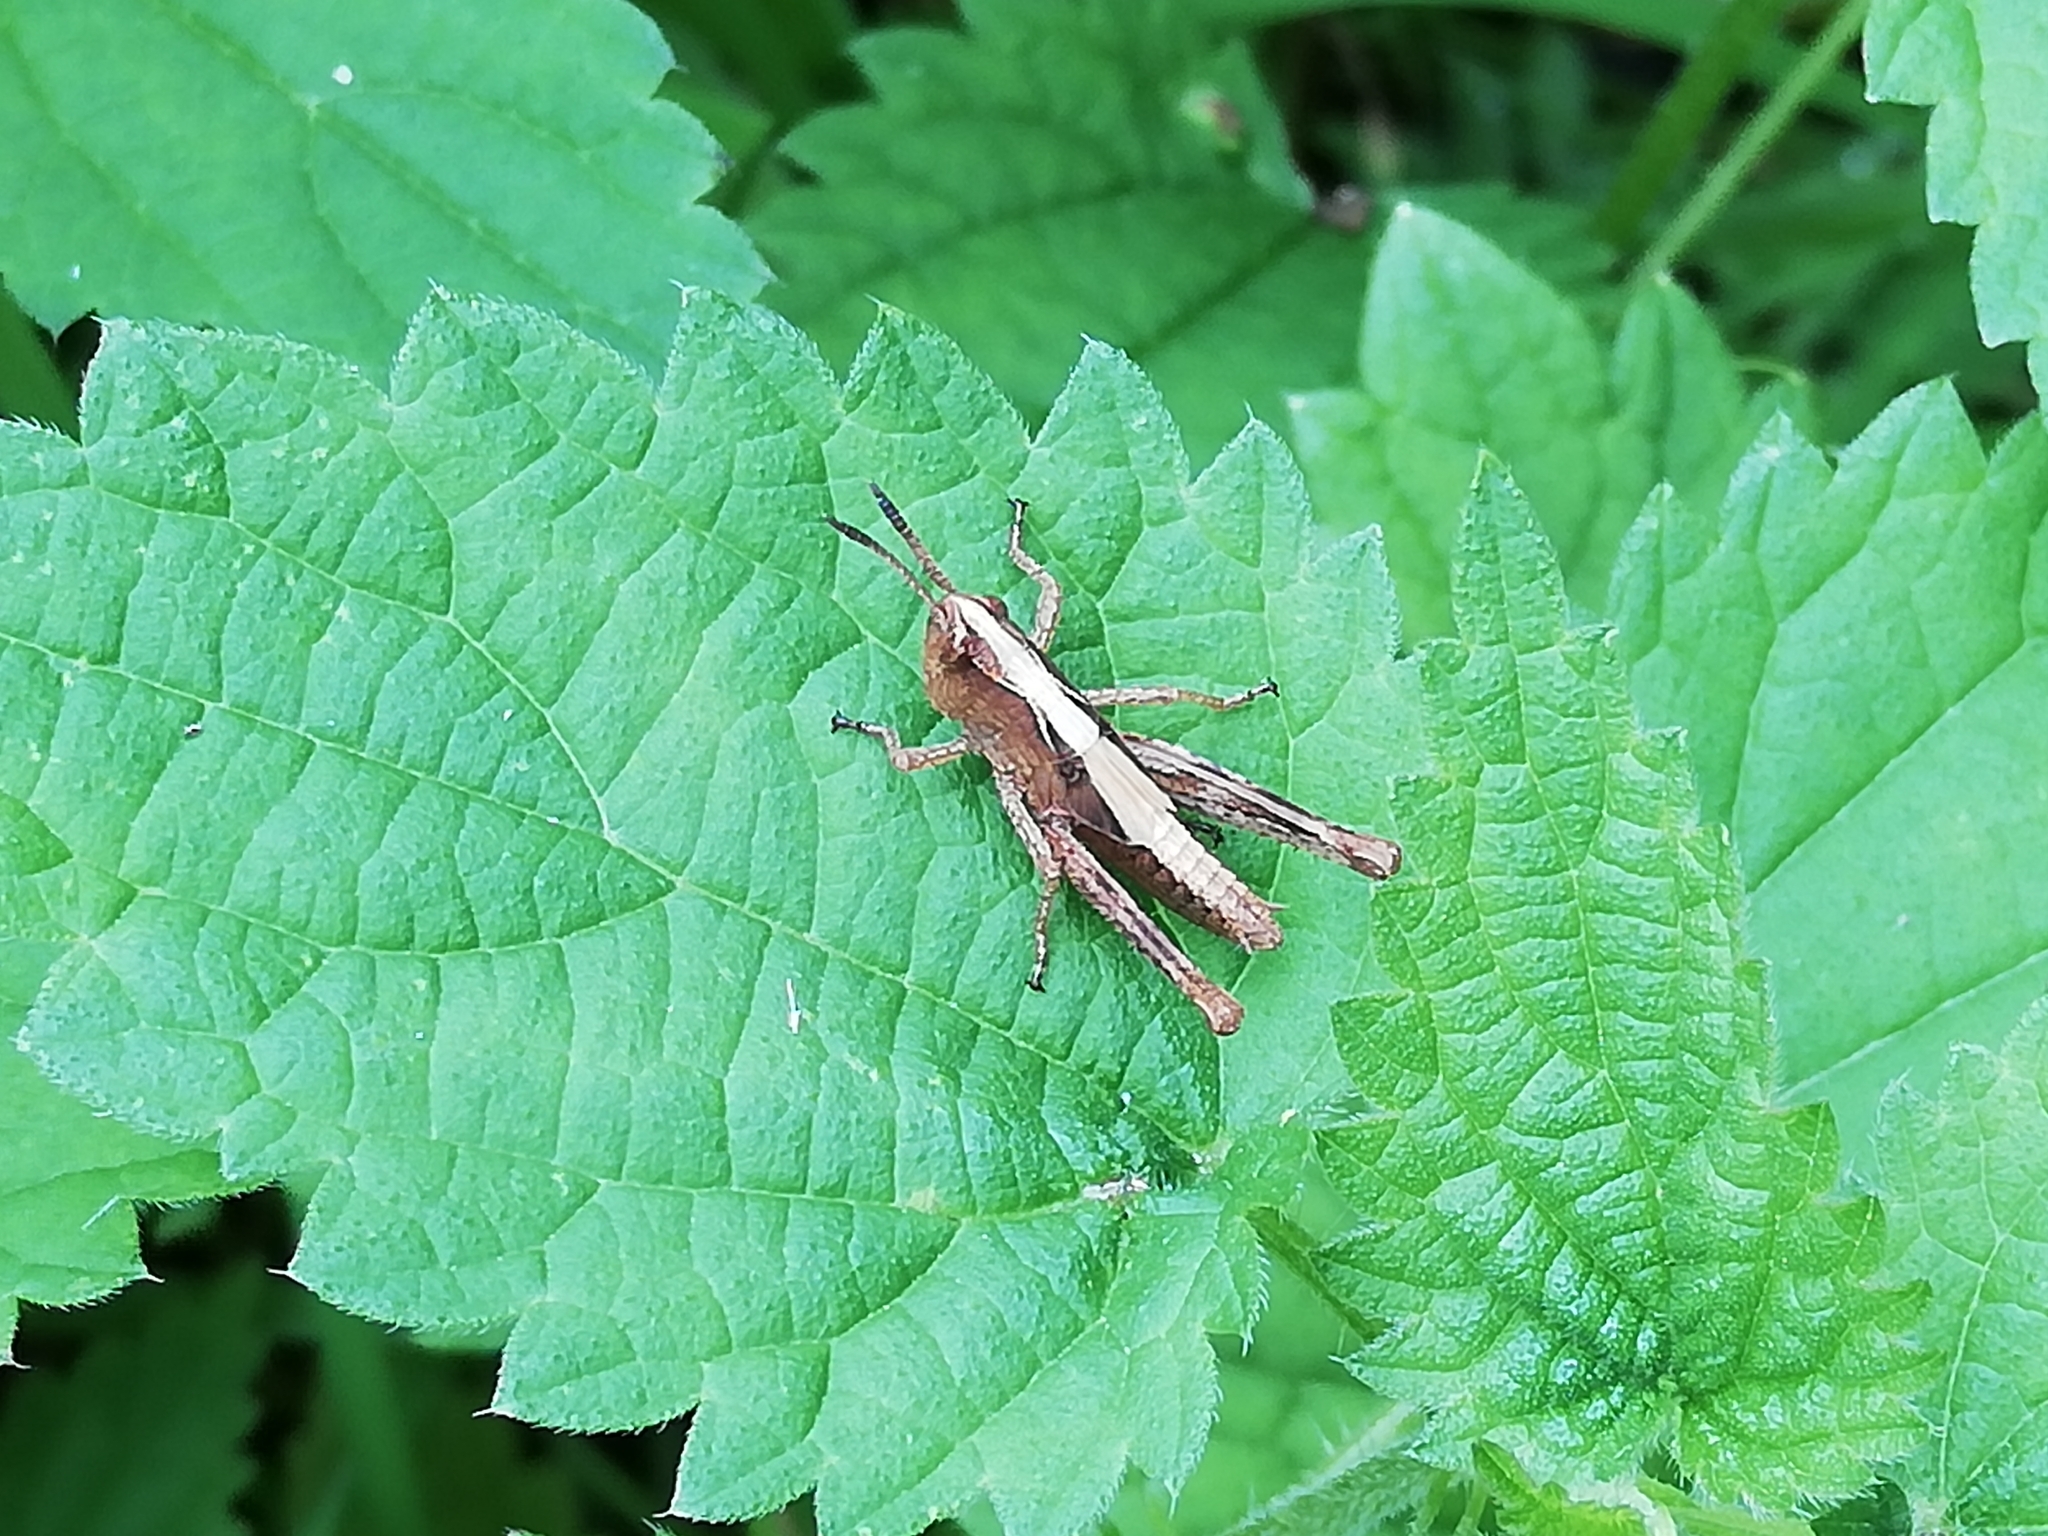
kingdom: Animalia
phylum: Arthropoda
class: Insecta
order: Orthoptera
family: Acrididae
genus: Gomphocerippus
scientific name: Gomphocerippus rufus
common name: Rufous grasshopper
